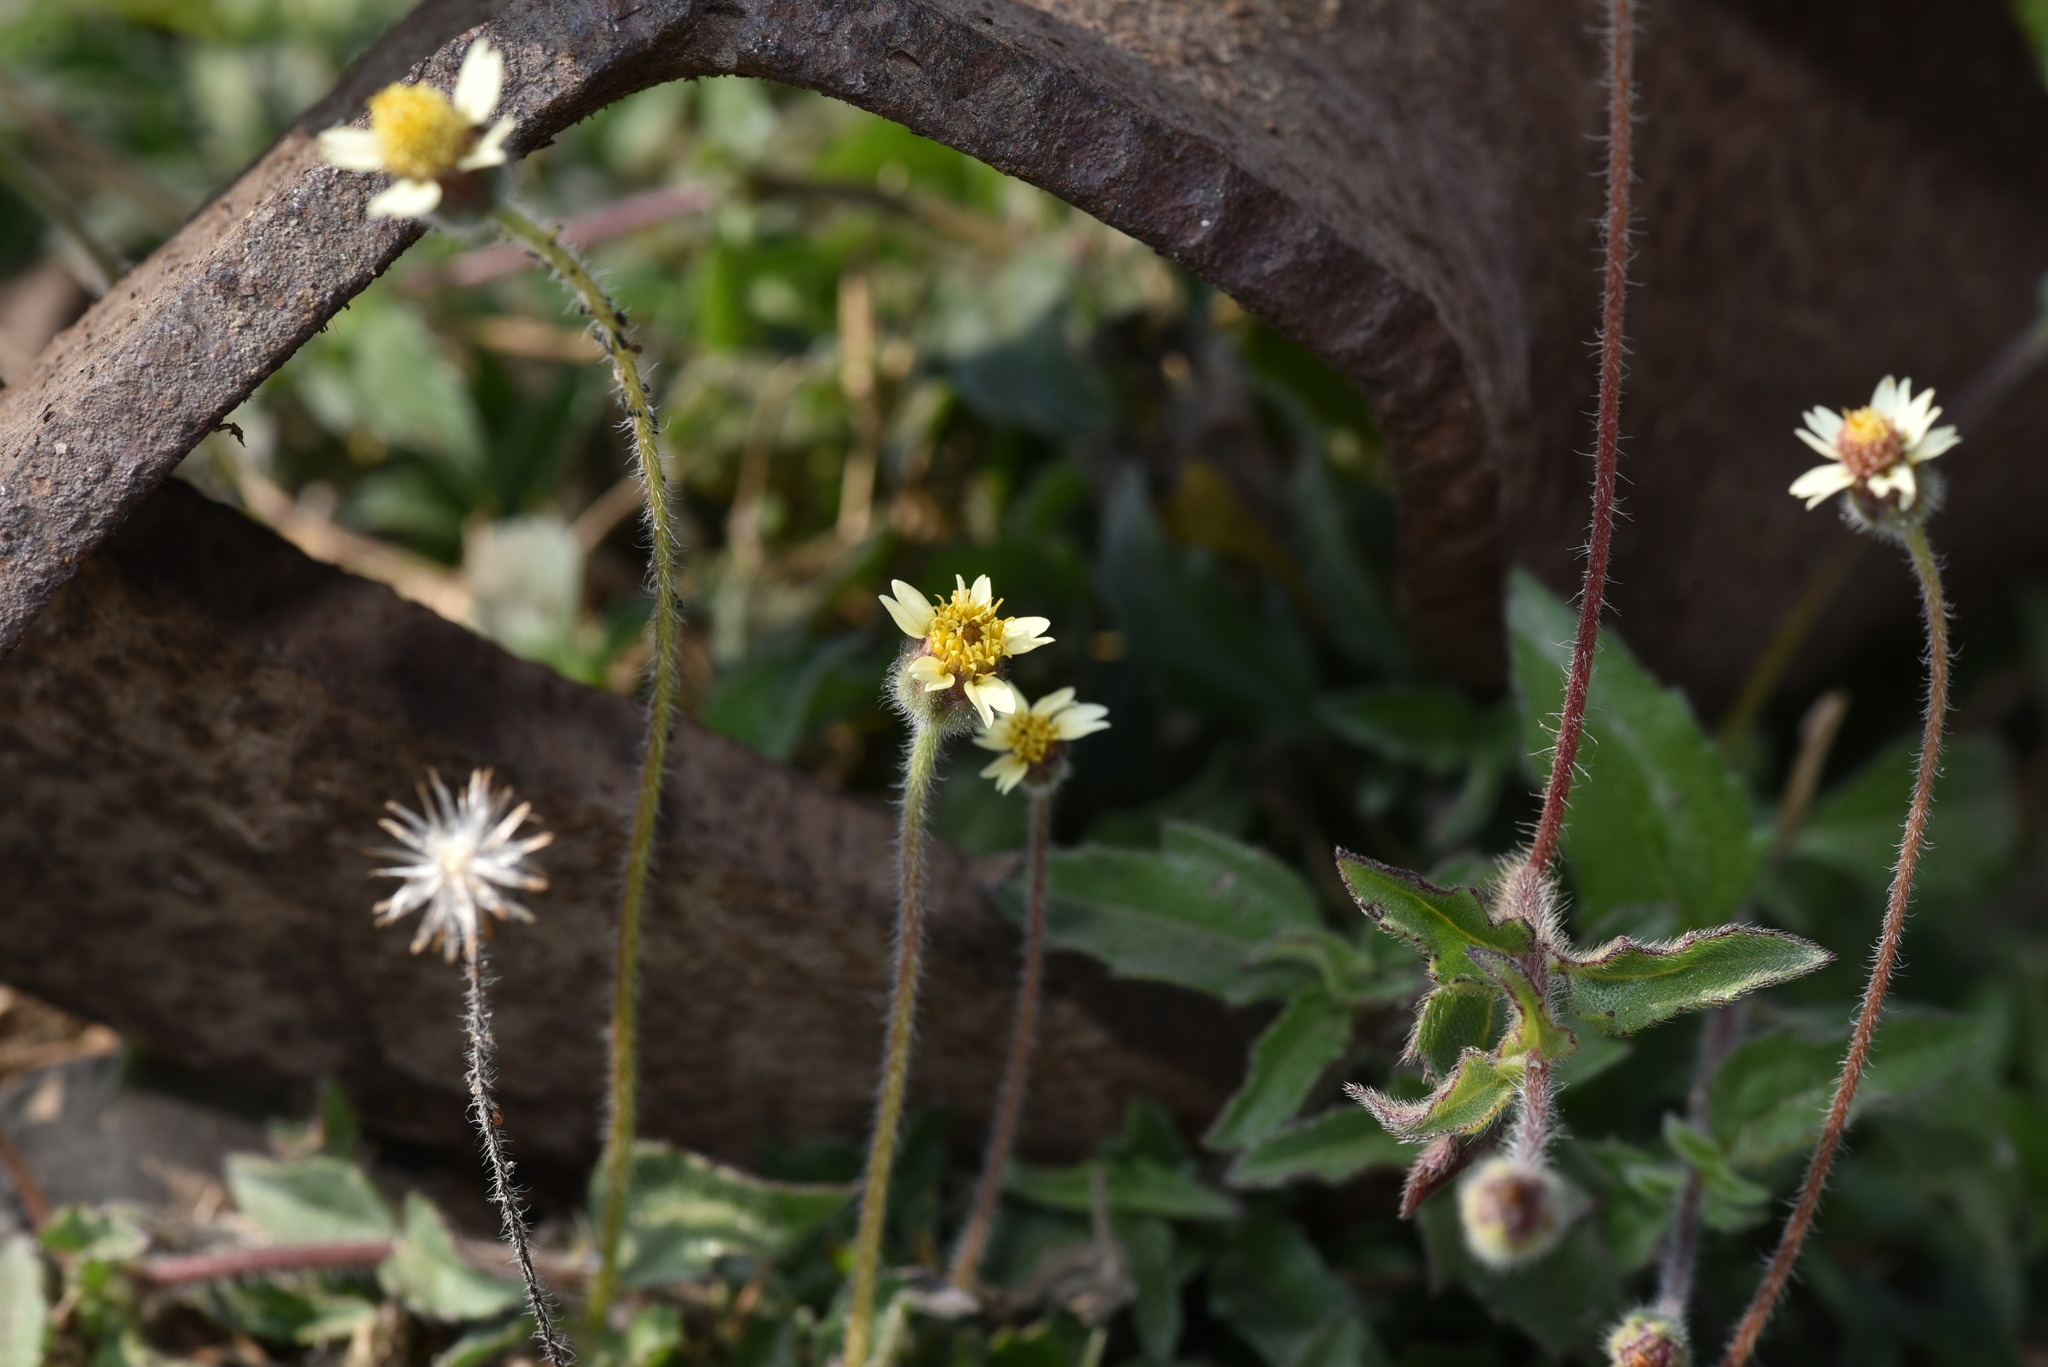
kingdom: Plantae
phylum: Tracheophyta
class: Magnoliopsida
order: Asterales
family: Asteraceae
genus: Tridax
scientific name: Tridax procumbens
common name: Coatbuttons
